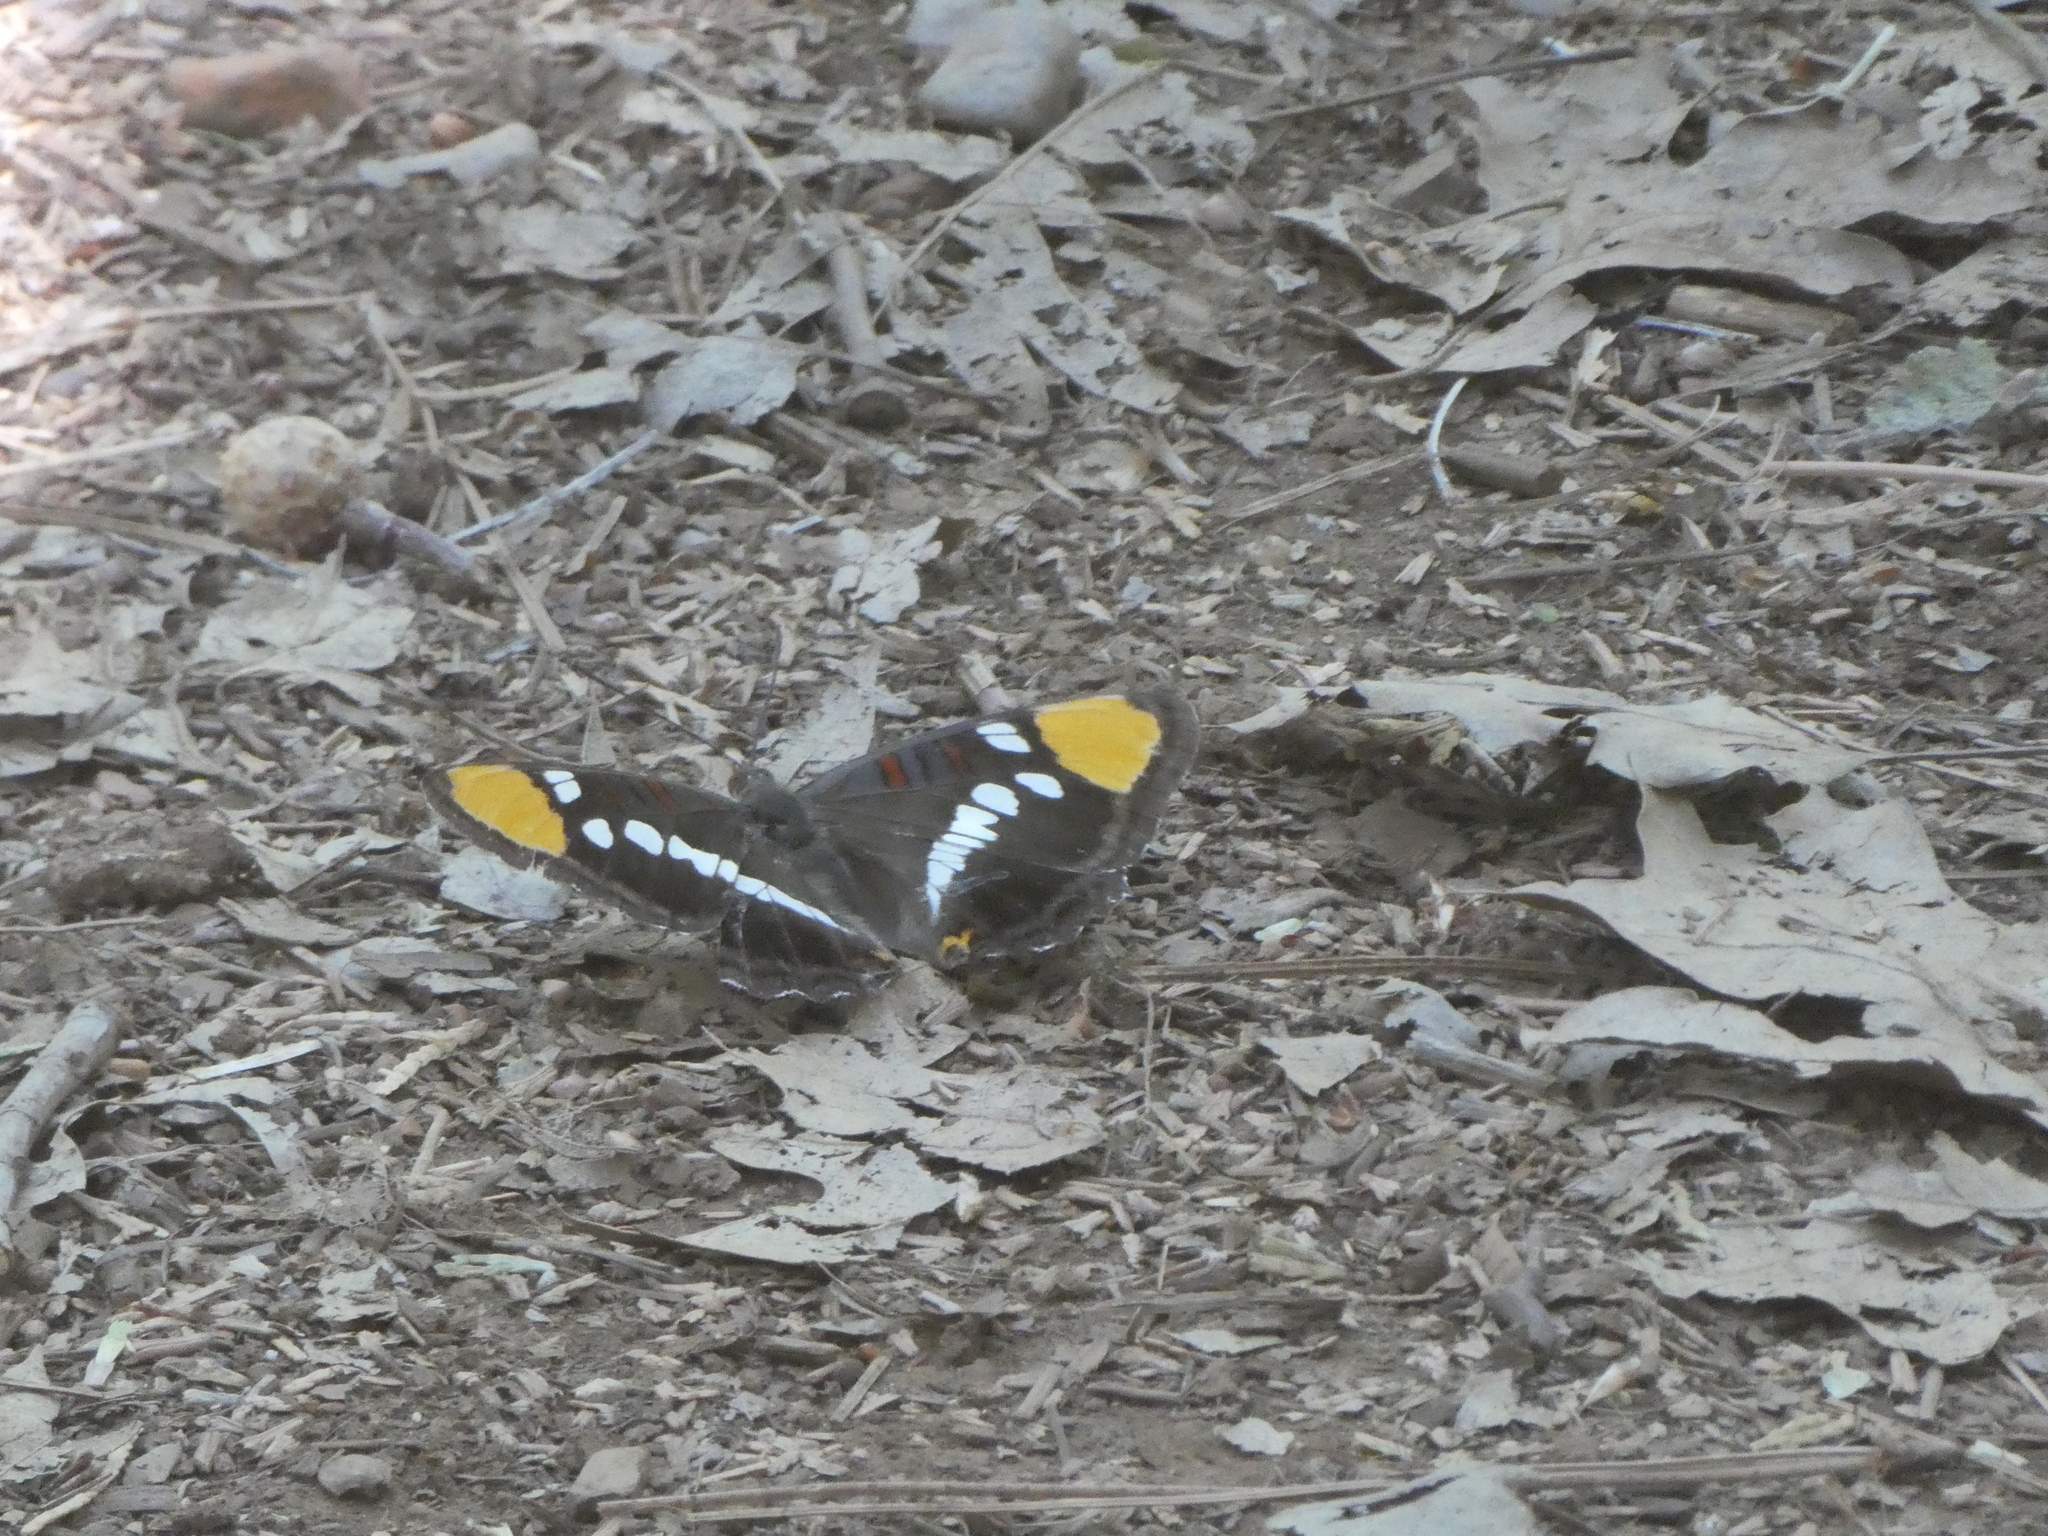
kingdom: Animalia
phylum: Arthropoda
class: Insecta
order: Lepidoptera
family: Nymphalidae
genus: Limenitis
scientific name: Limenitis bredowii
